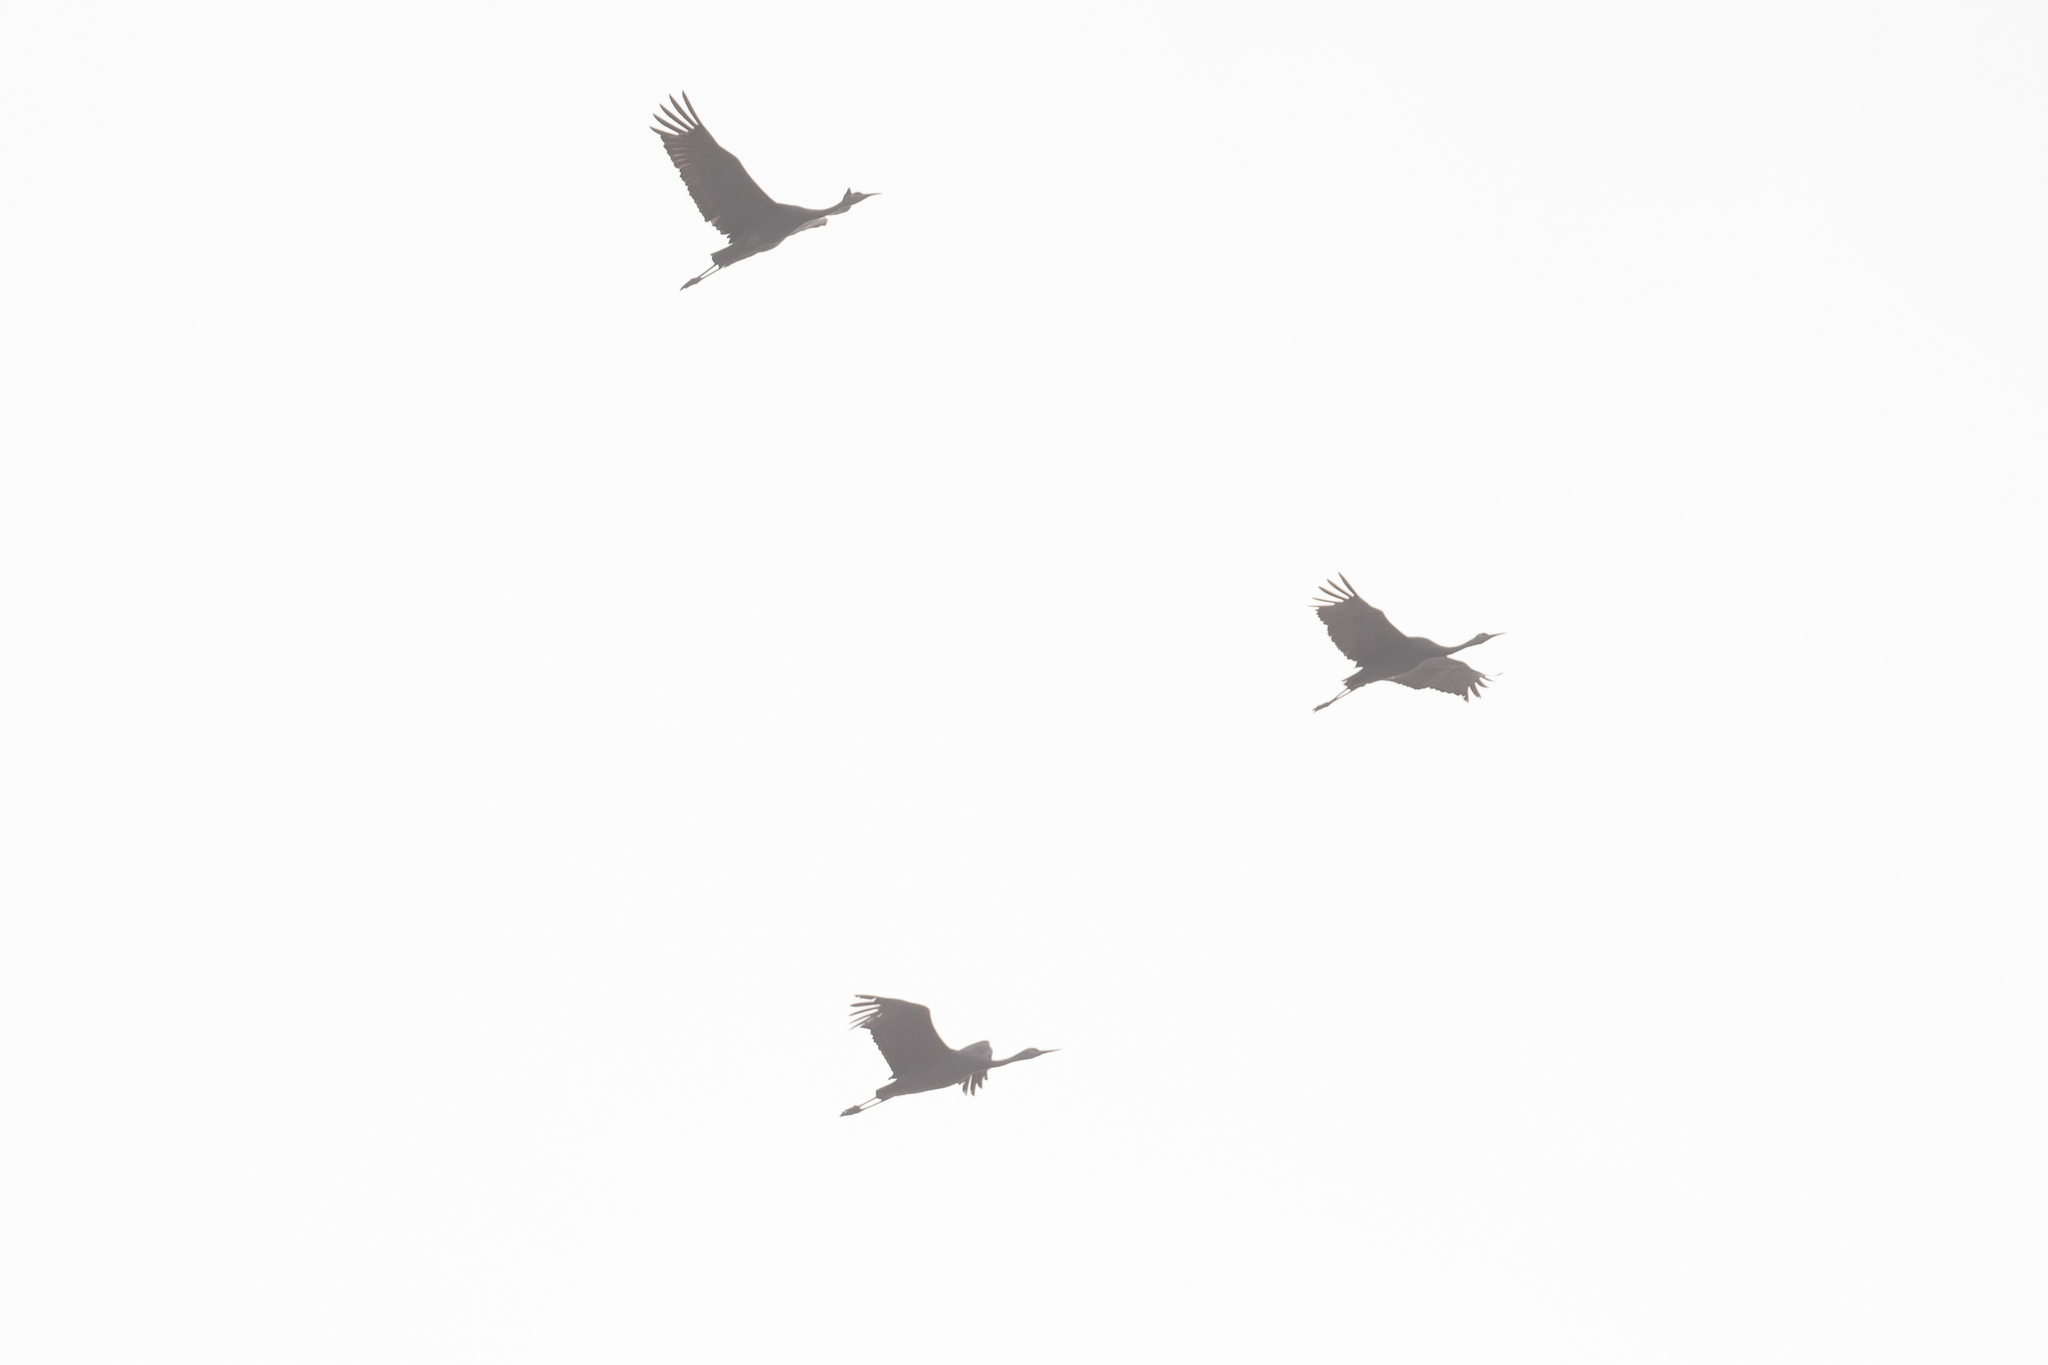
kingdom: Animalia
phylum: Chordata
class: Aves
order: Gruiformes
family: Gruidae
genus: Grus
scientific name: Grus canadensis
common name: Sandhill crane
